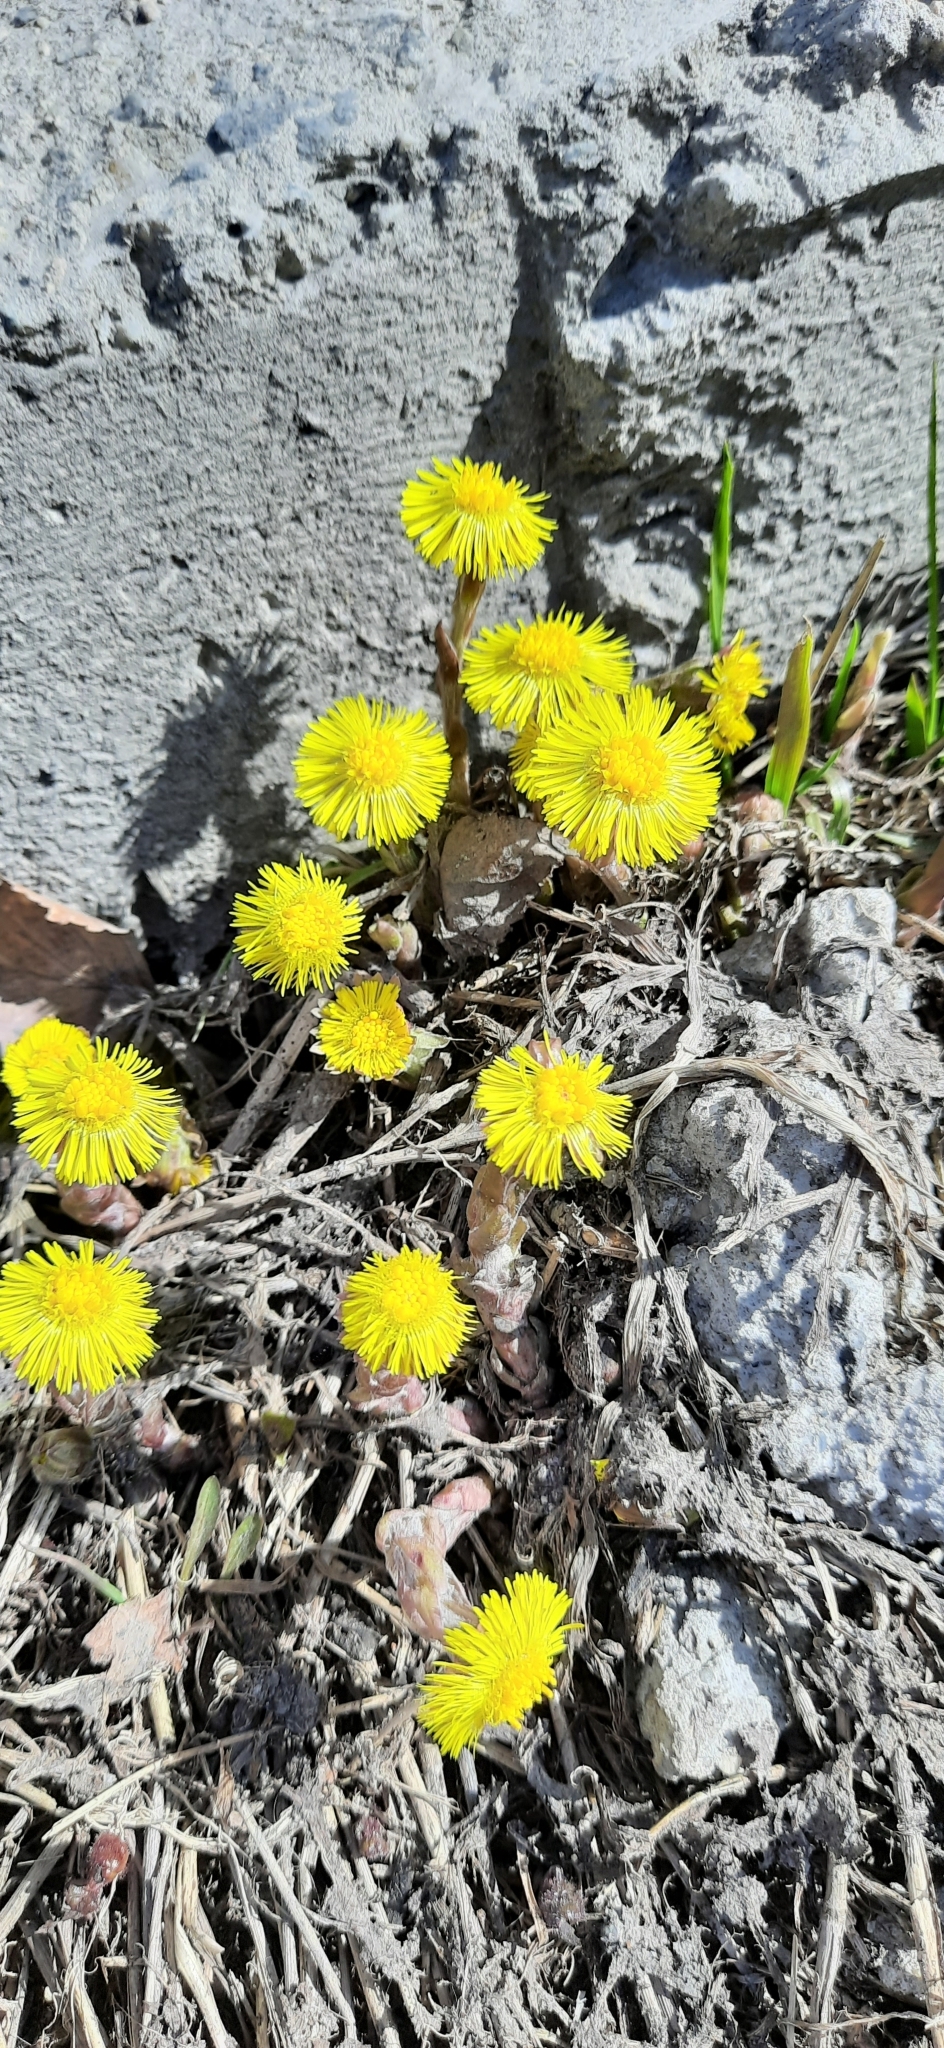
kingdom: Plantae
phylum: Tracheophyta
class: Magnoliopsida
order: Asterales
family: Asteraceae
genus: Tussilago
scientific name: Tussilago farfara
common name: Coltsfoot
